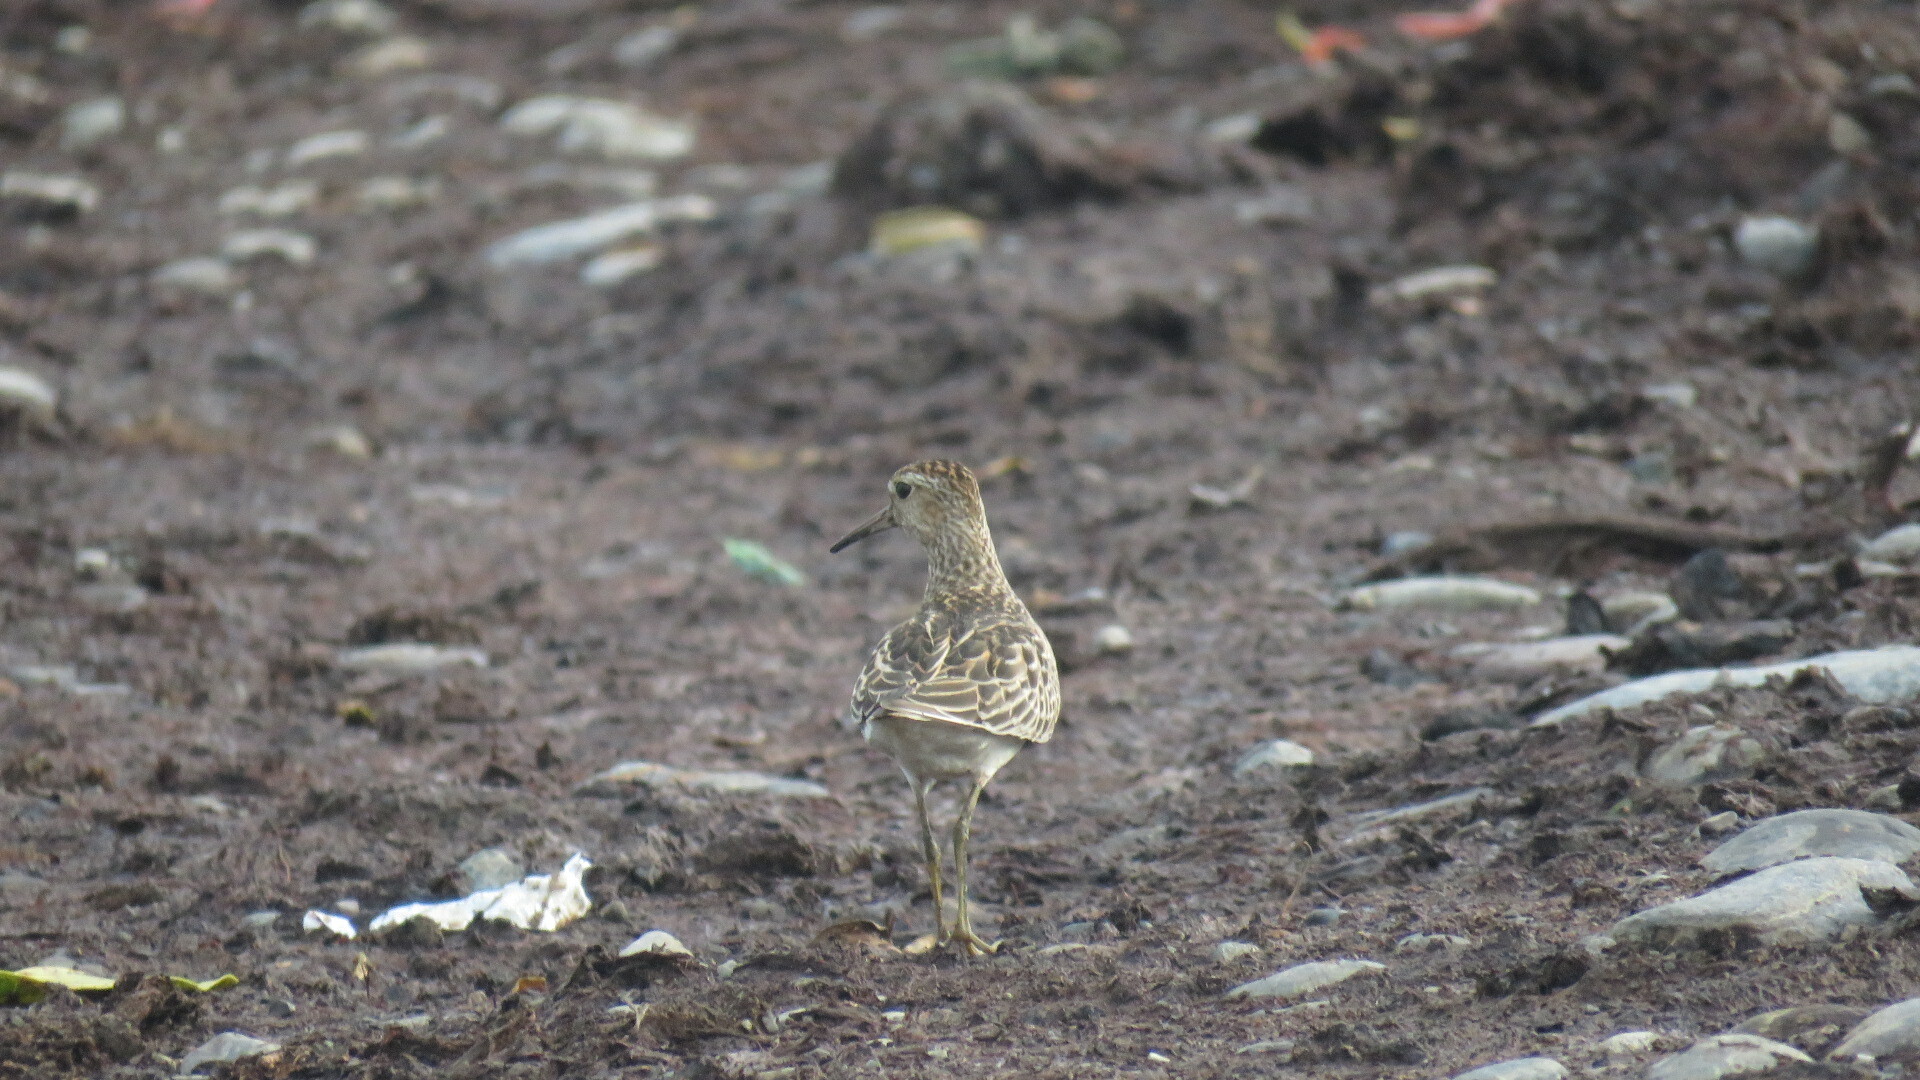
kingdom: Animalia
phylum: Chordata
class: Aves
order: Charadriiformes
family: Scolopacidae
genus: Calidris
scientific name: Calidris melanotos
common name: Pectoral sandpiper
